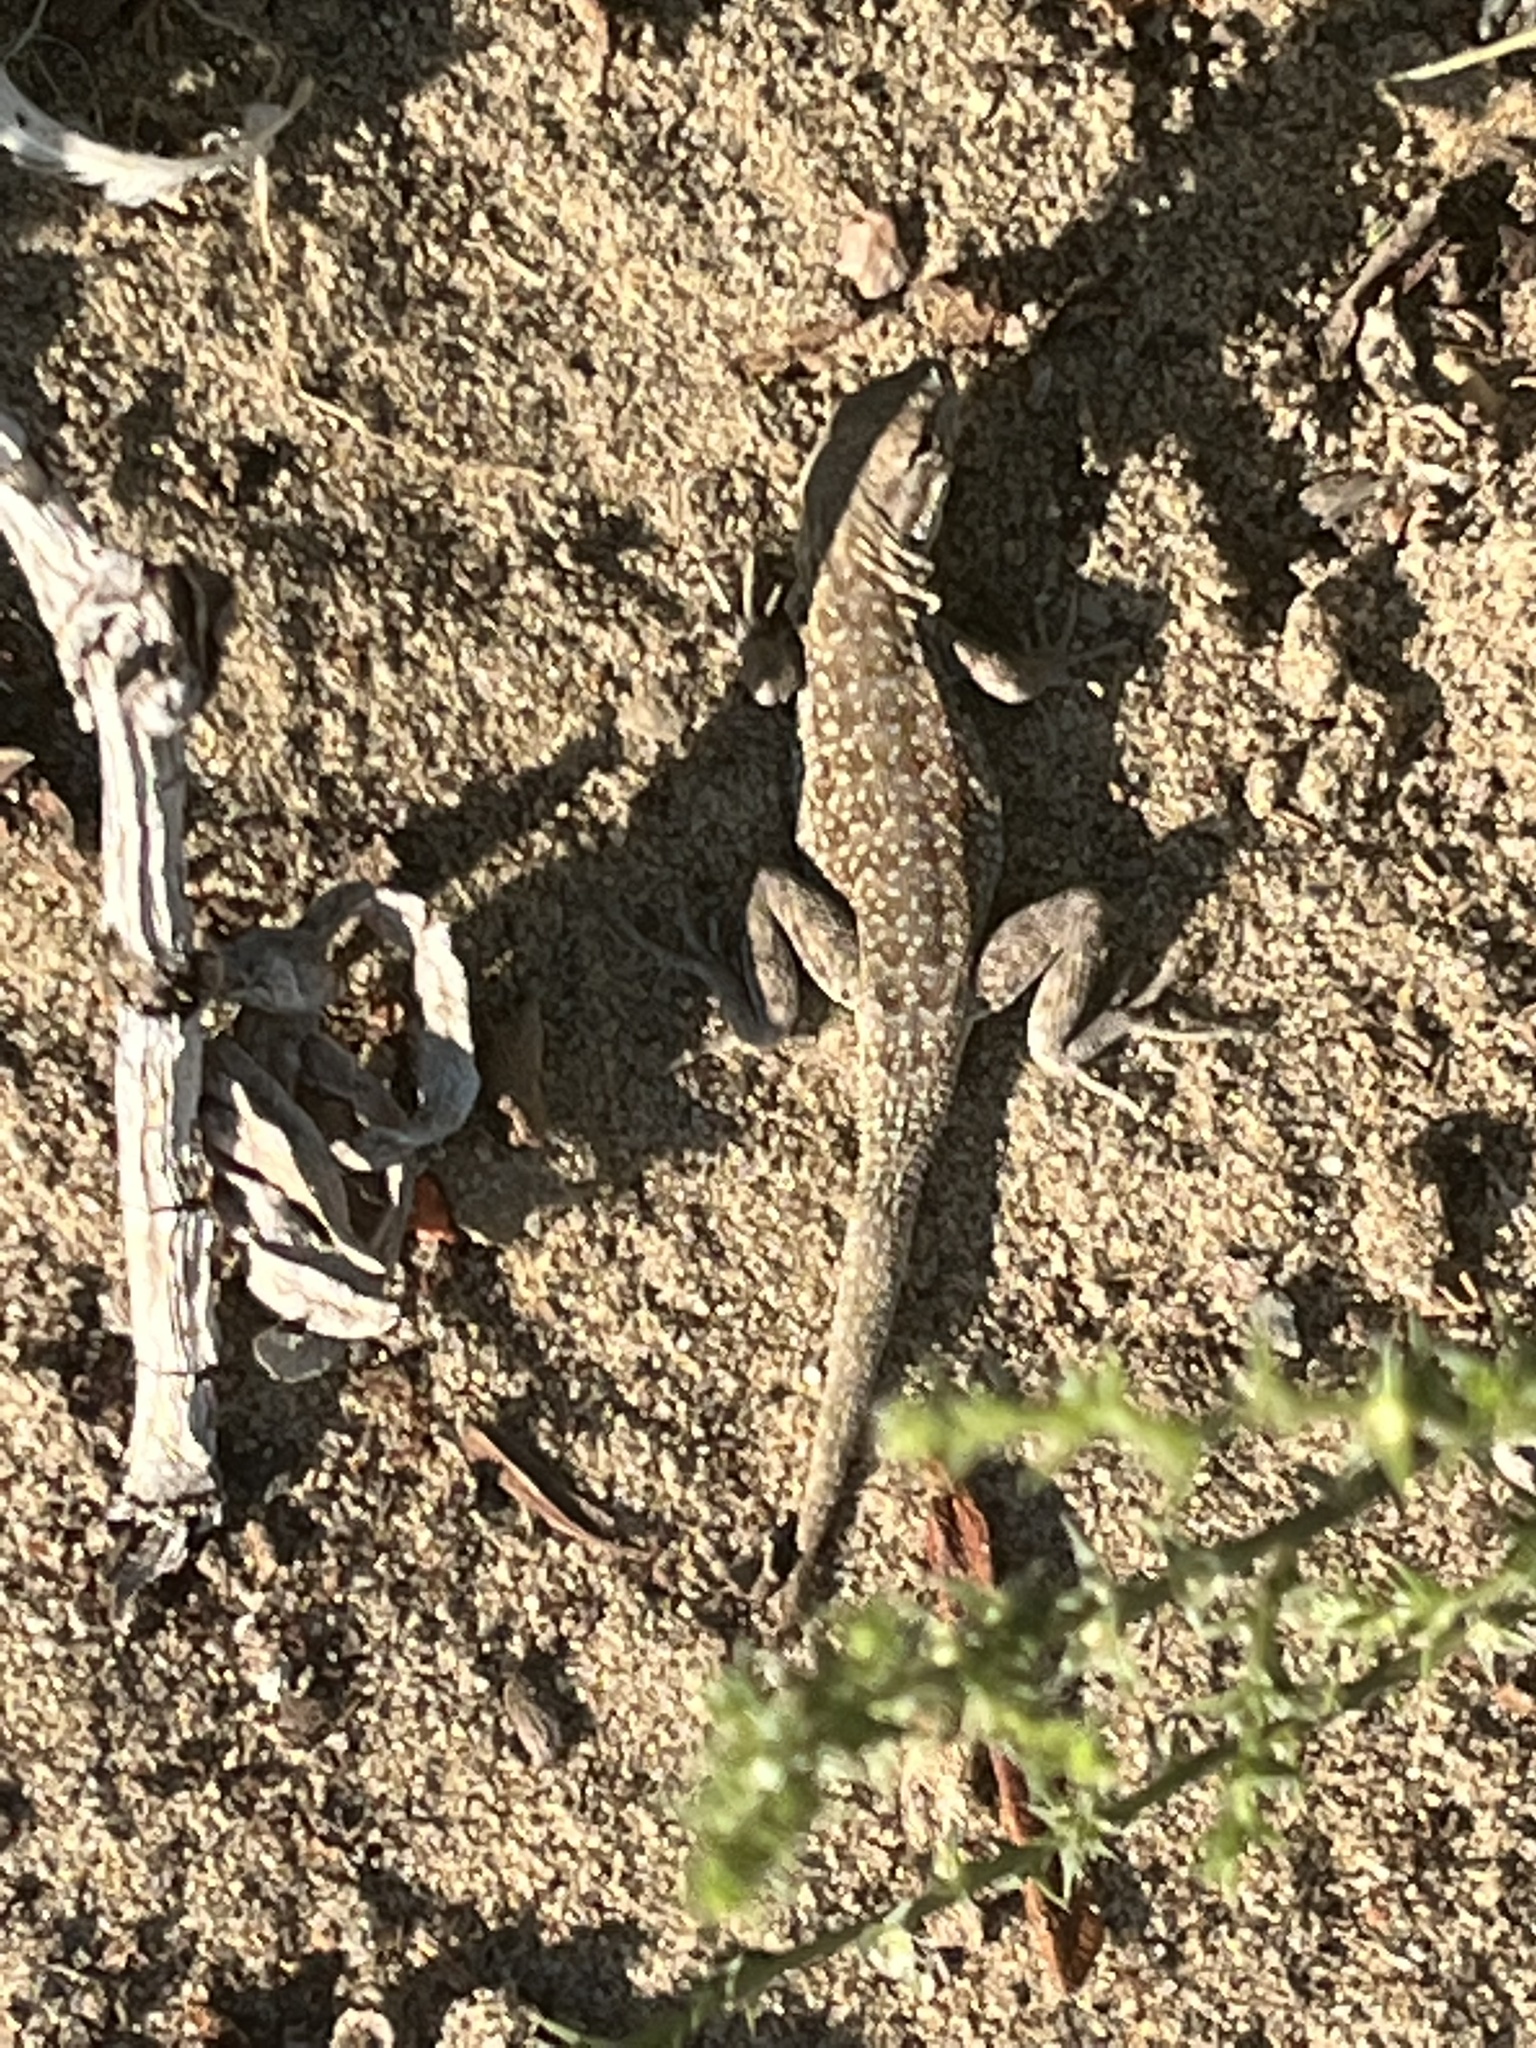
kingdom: Animalia
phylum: Chordata
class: Squamata
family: Phrynosomatidae
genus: Uta
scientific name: Uta stansburiana
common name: Side-blotched lizard
